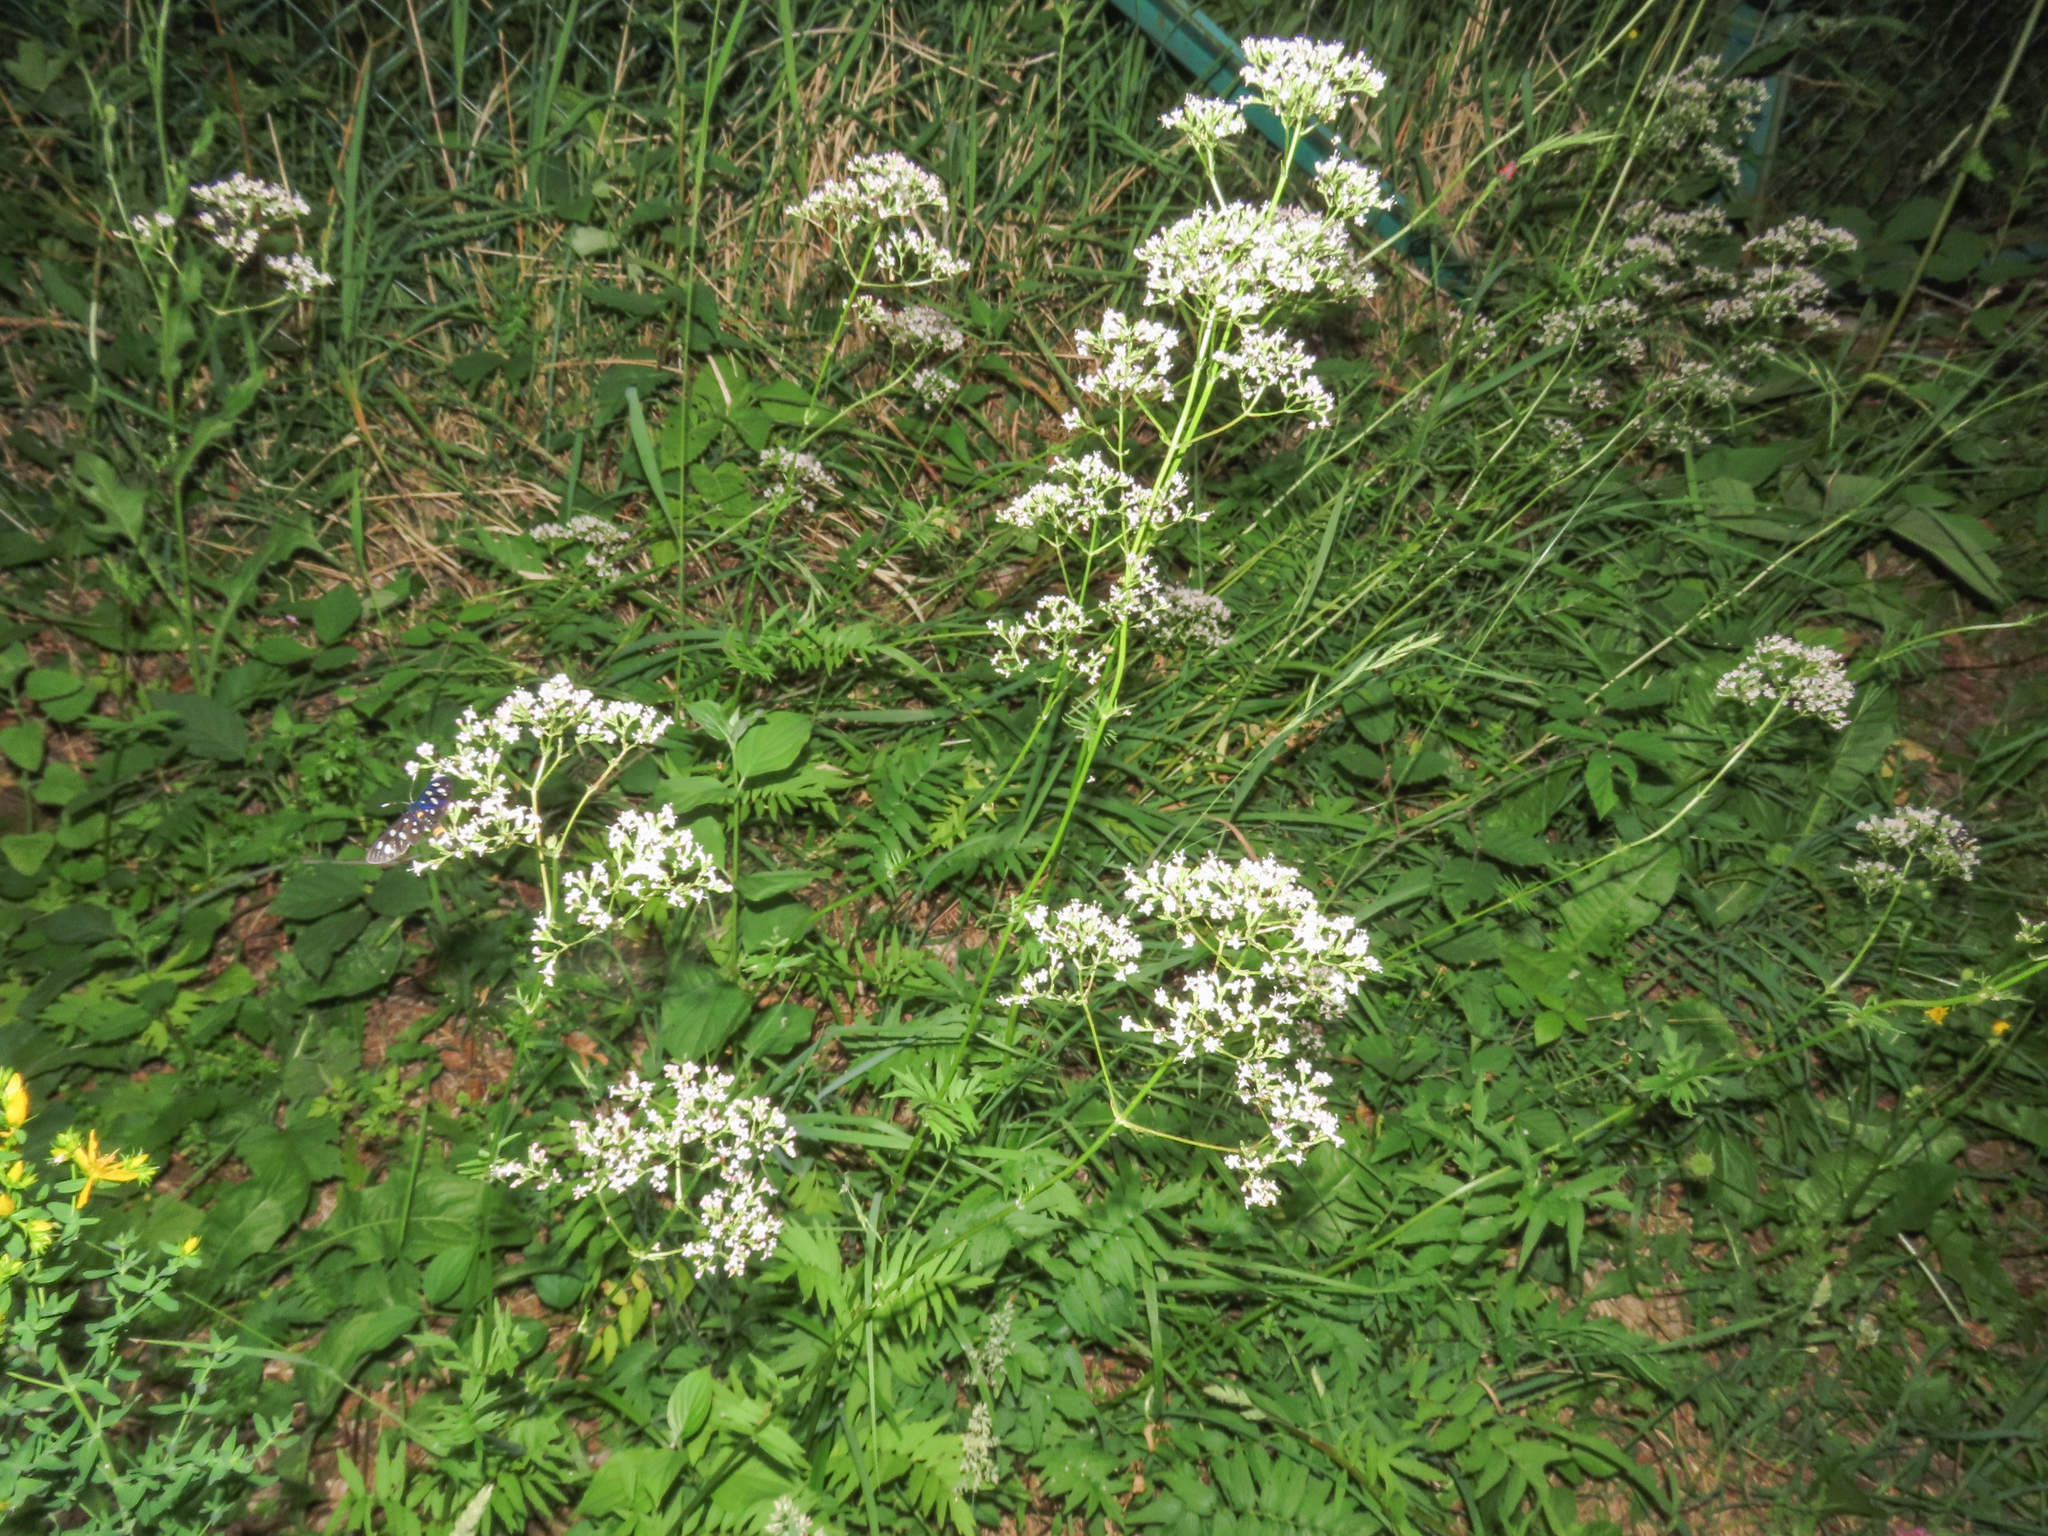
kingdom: Plantae
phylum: Tracheophyta
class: Magnoliopsida
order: Dipsacales
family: Caprifoliaceae
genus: Valeriana
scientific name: Valeriana officinalis
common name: Common valerian
